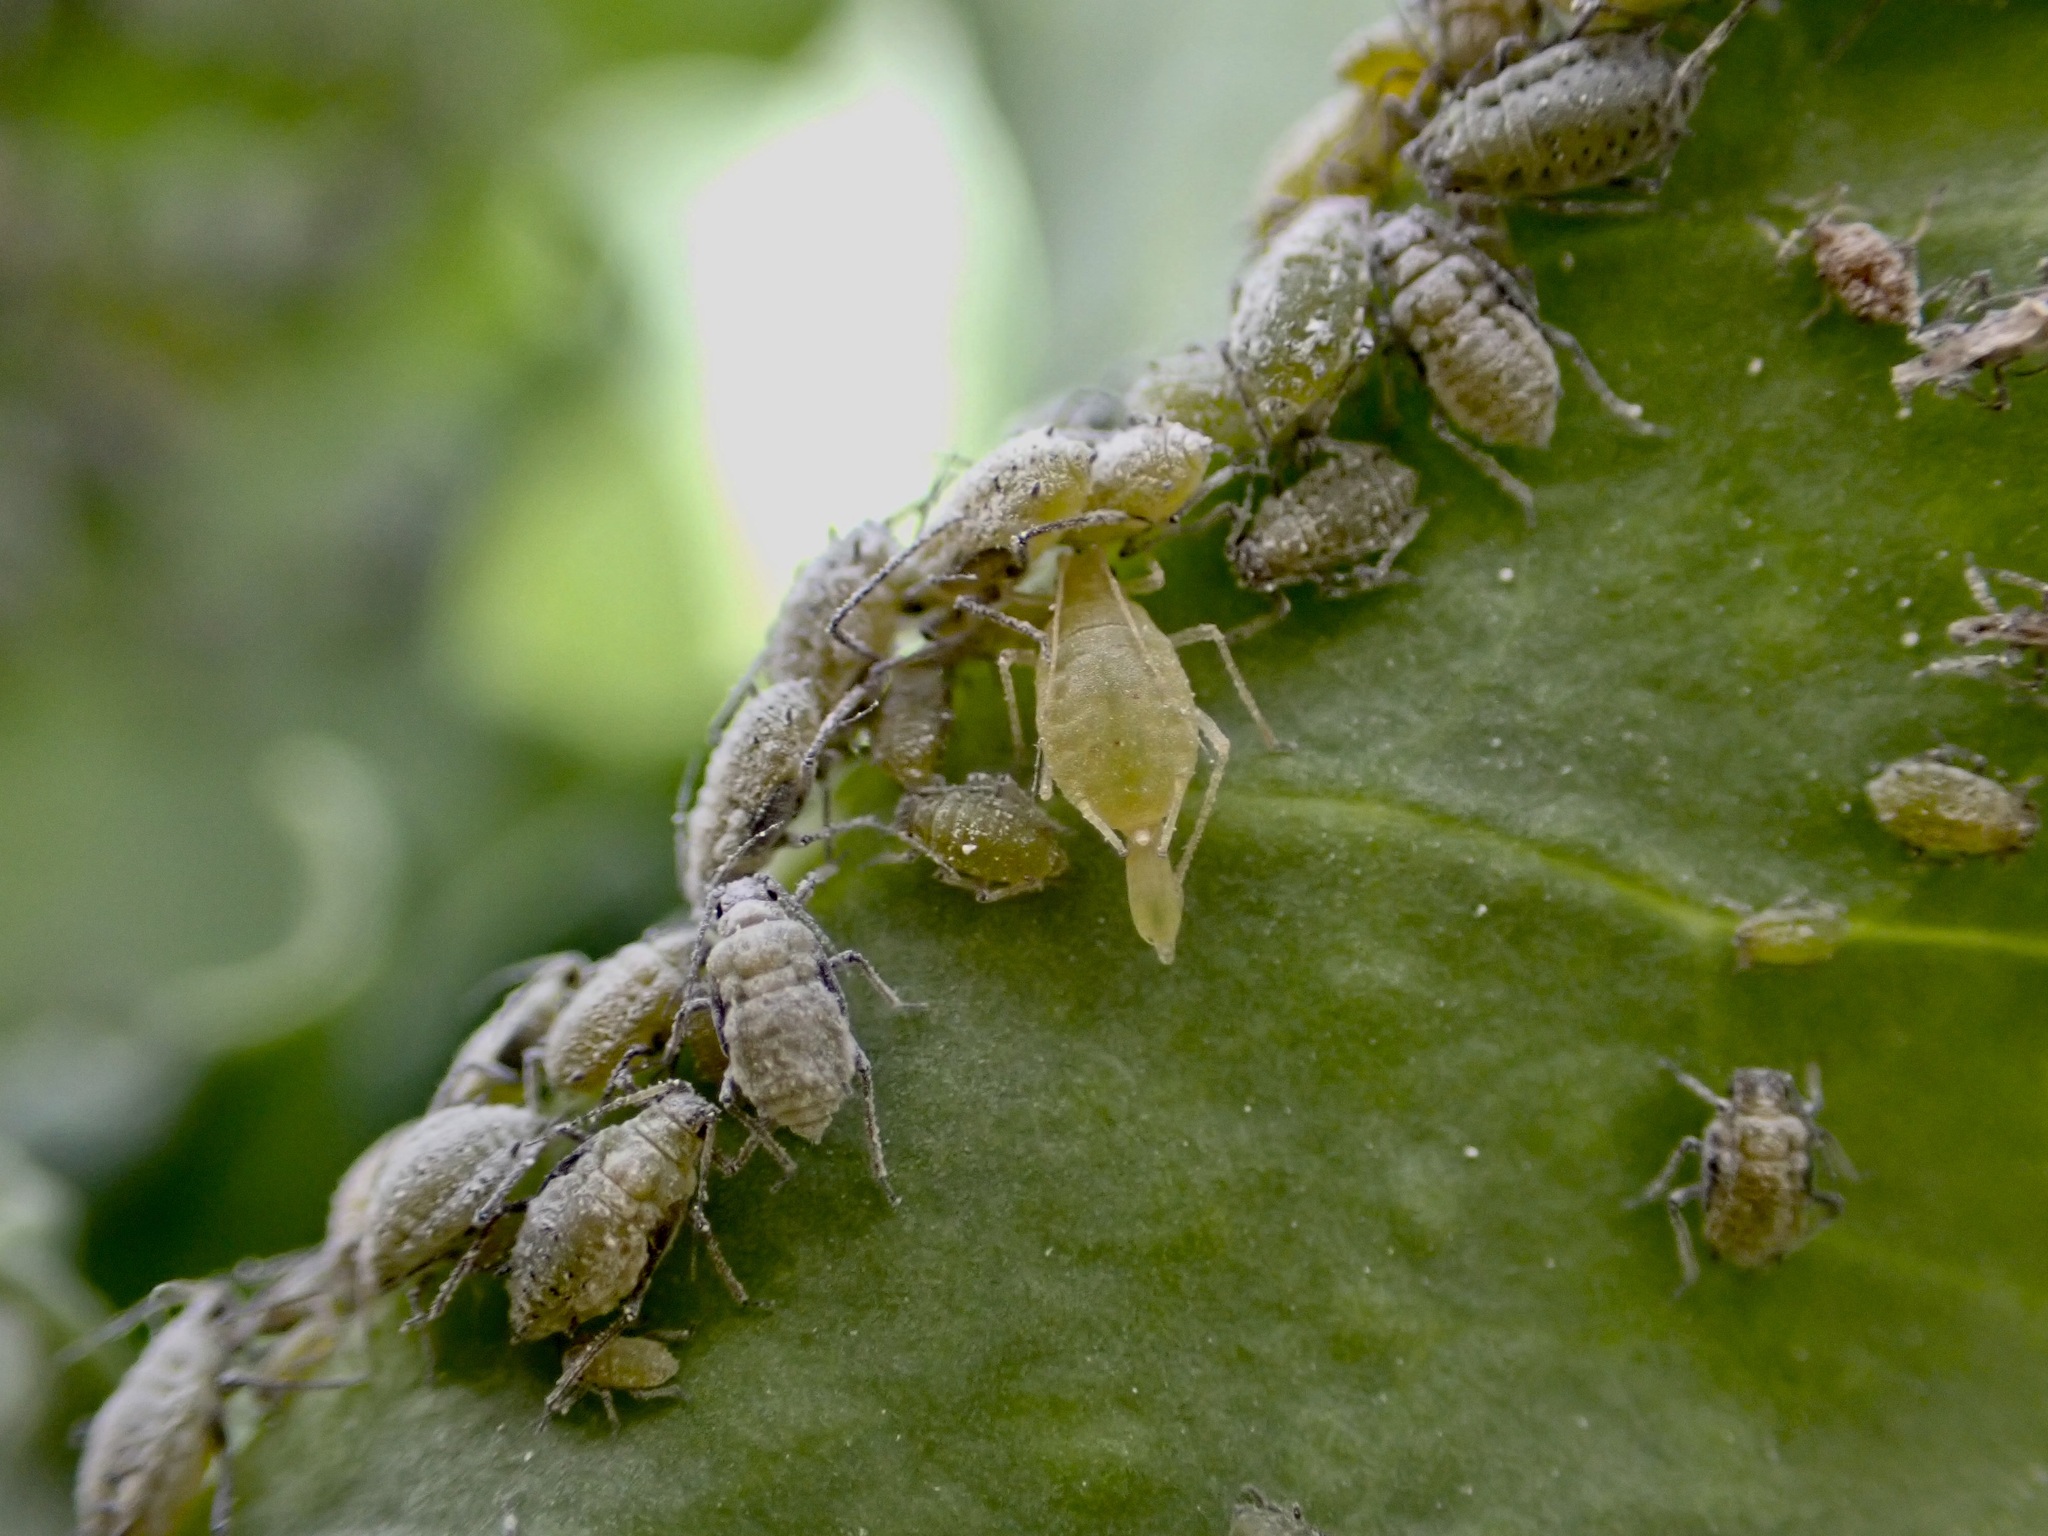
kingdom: Animalia
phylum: Arthropoda
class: Insecta
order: Hemiptera
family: Aphididae
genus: Brevicoryne
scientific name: Brevicoryne brassicae
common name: Cabbage aphid
